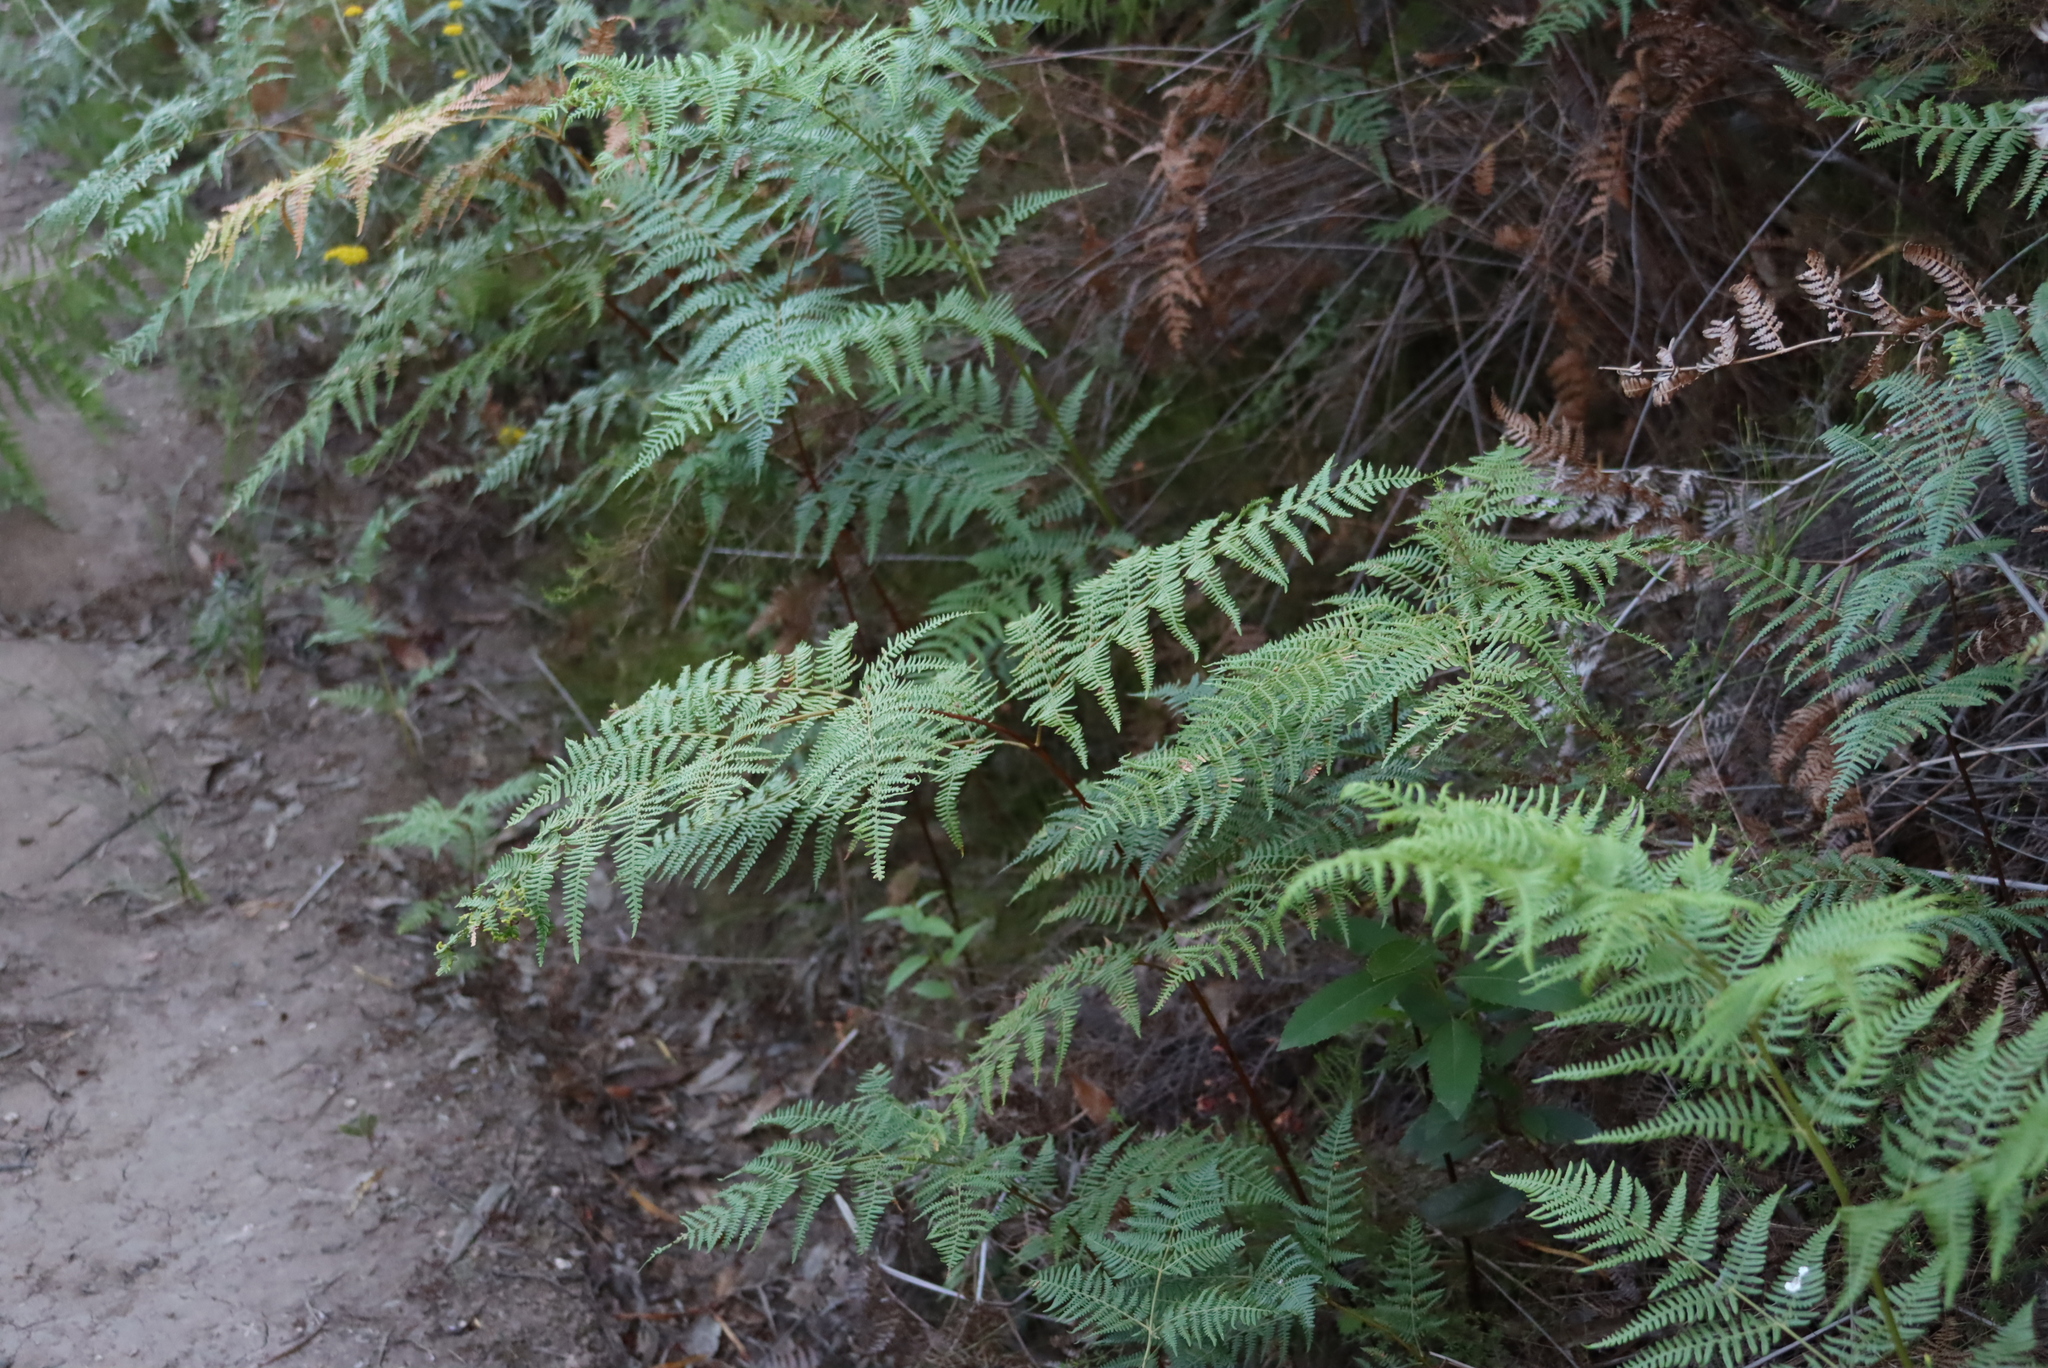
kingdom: Plantae
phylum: Tracheophyta
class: Polypodiopsida
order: Polypodiales
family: Dennstaedtiaceae
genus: Pteridium
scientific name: Pteridium aquilinum
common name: Bracken
